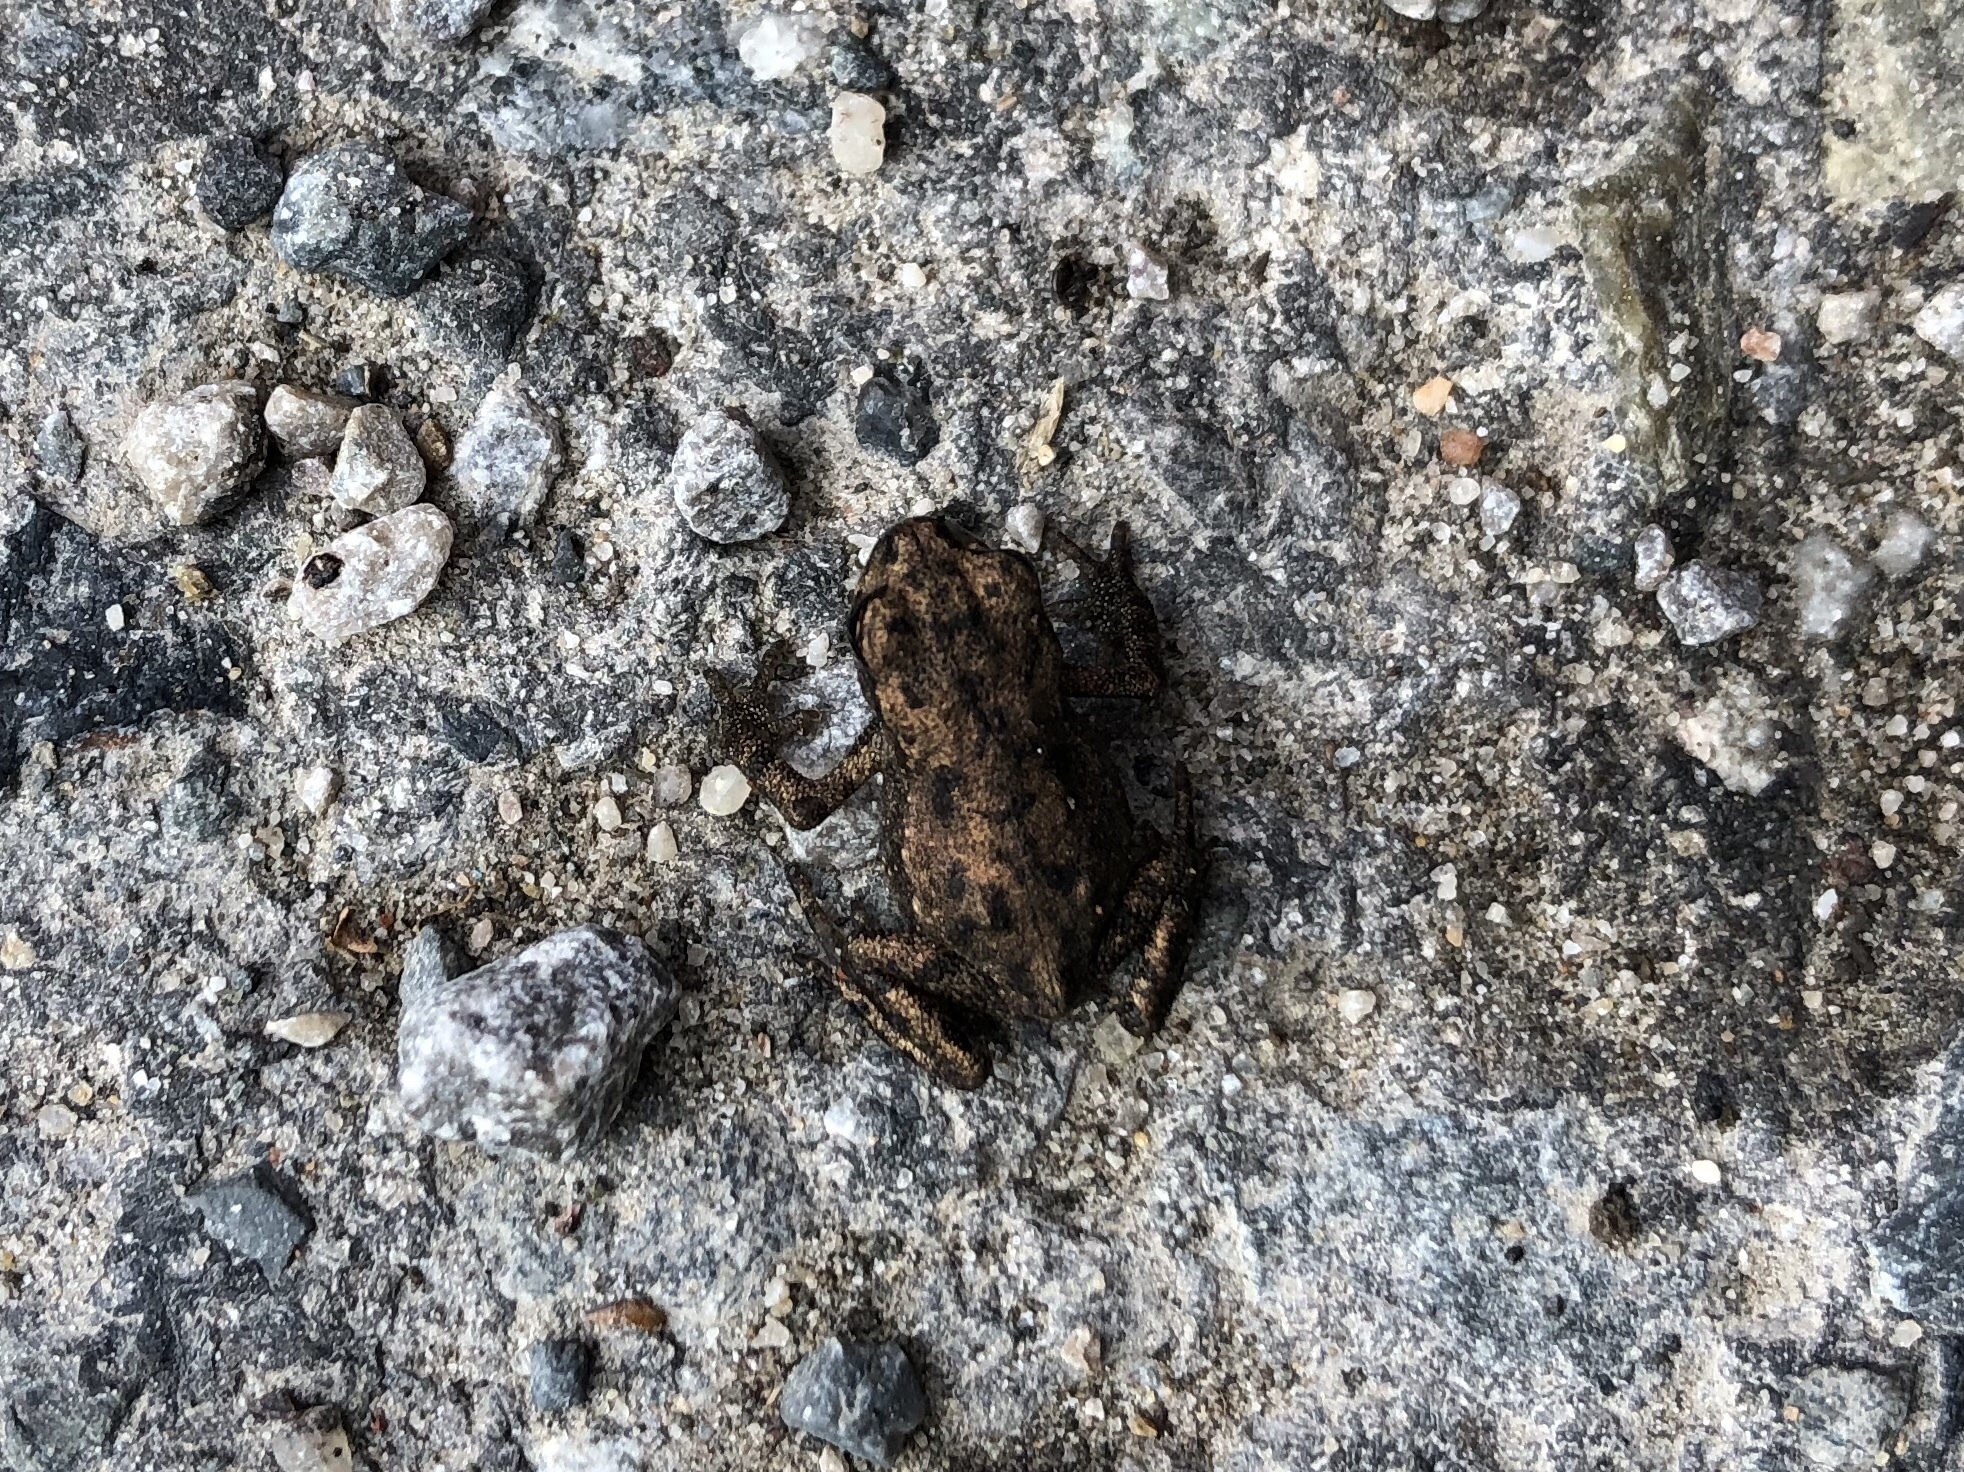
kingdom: Animalia
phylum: Chordata
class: Amphibia
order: Anura
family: Bufonidae
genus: Bufo
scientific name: Bufo bufo
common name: Common toad
